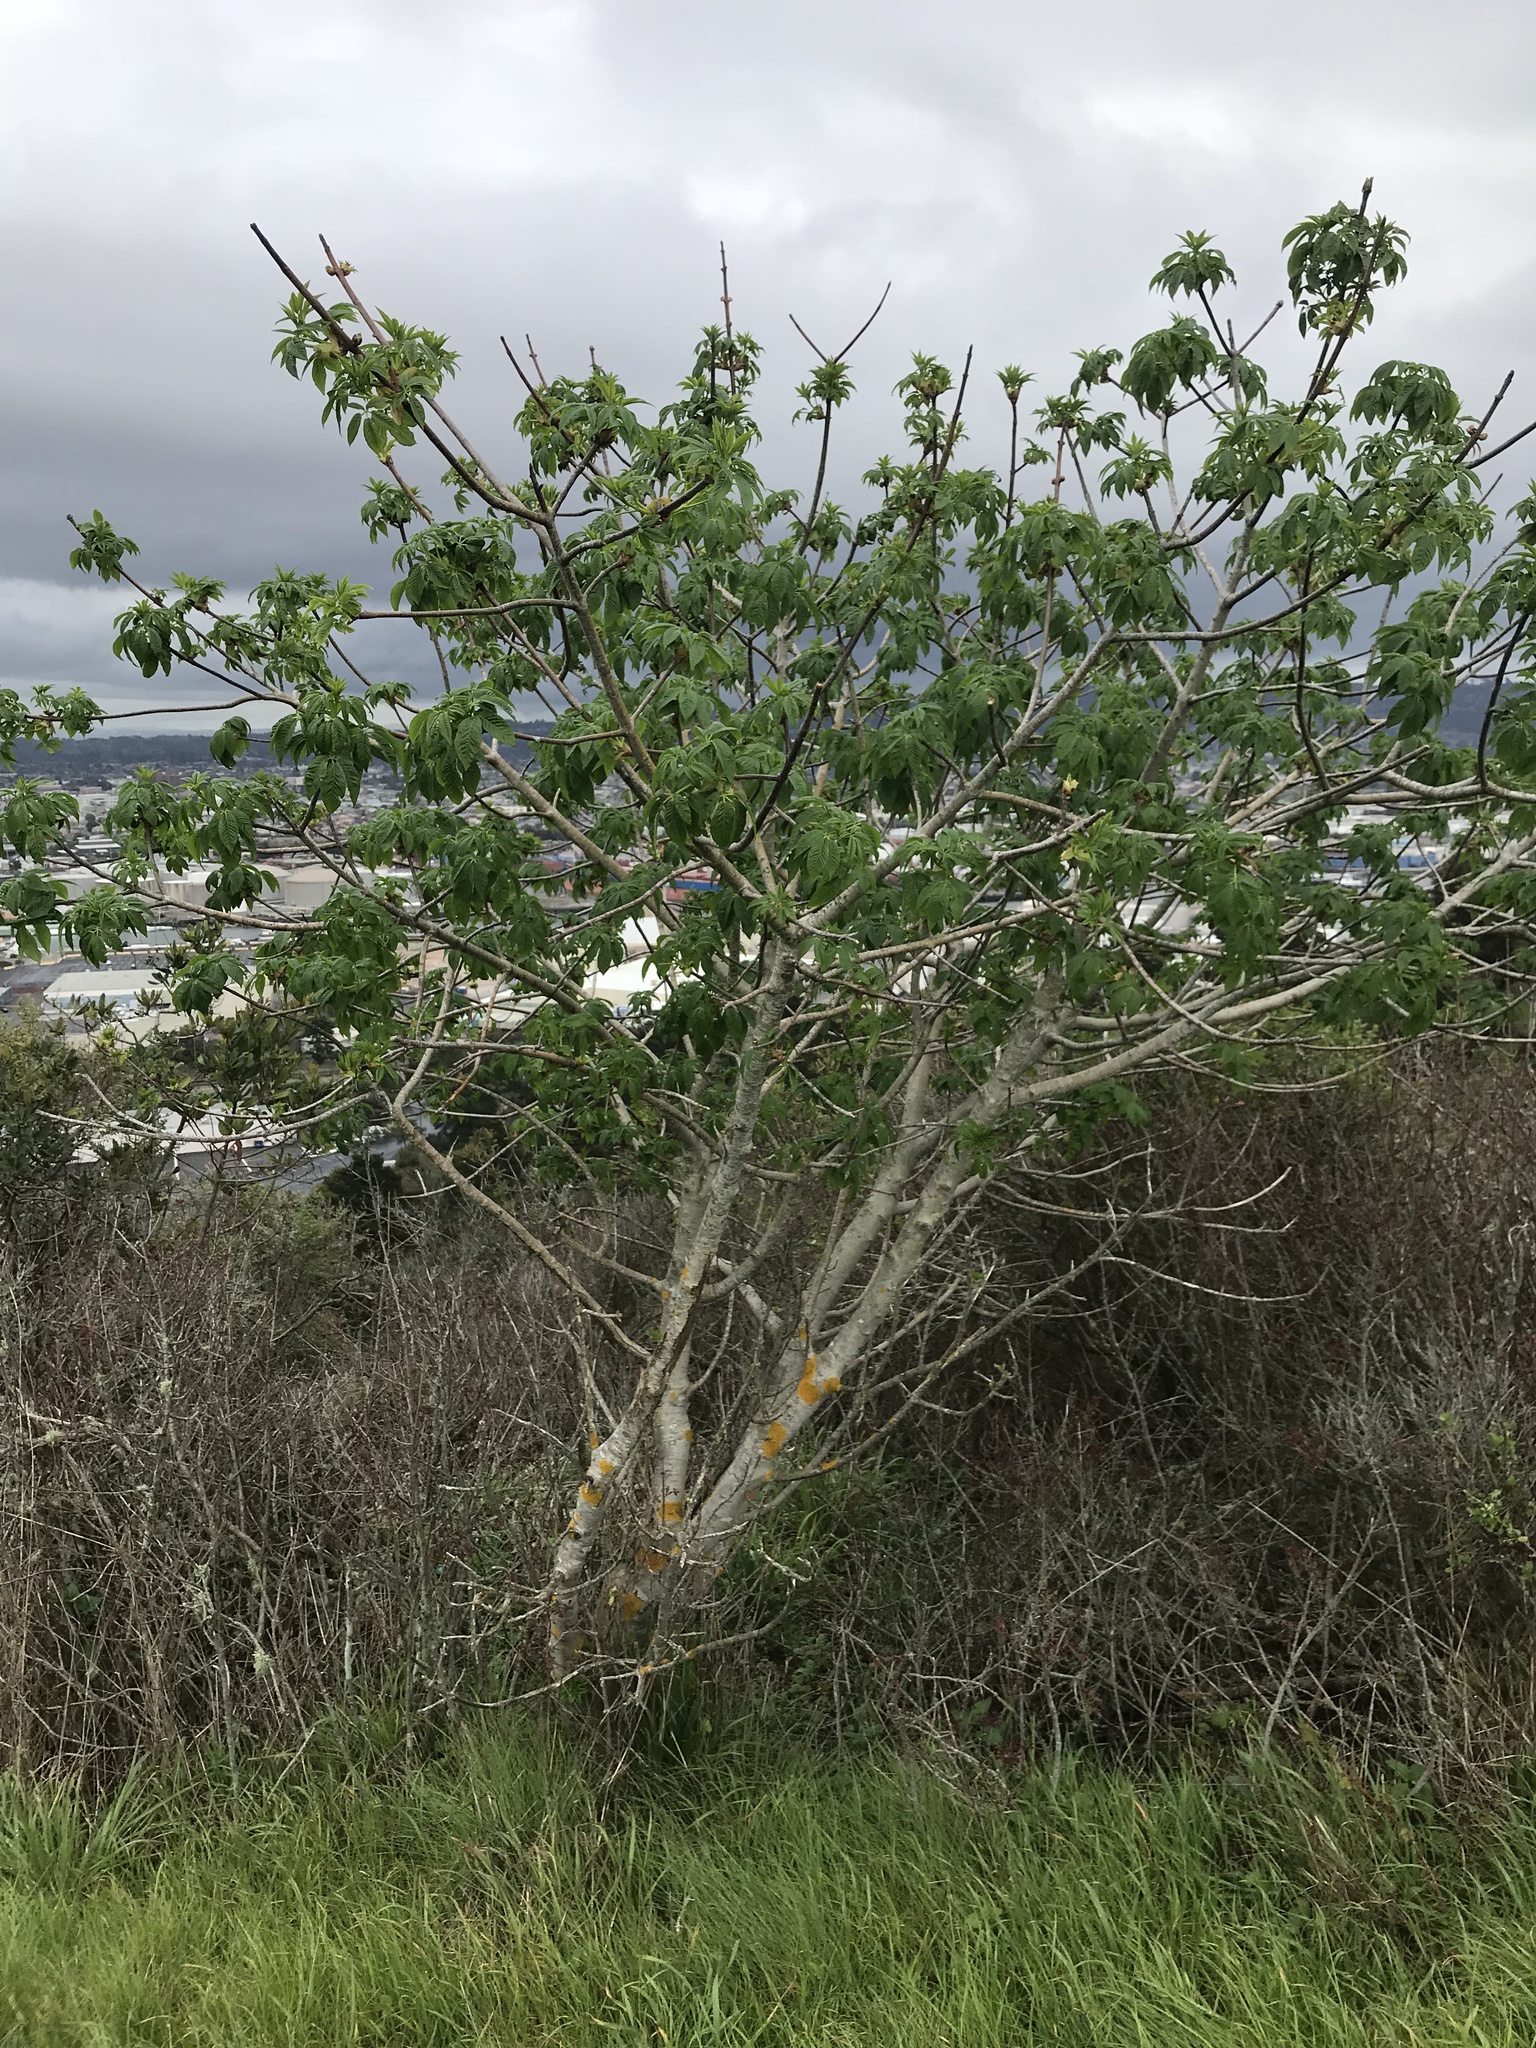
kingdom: Plantae
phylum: Tracheophyta
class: Magnoliopsida
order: Sapindales
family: Sapindaceae
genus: Aesculus
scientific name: Aesculus californica
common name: California buckeye
